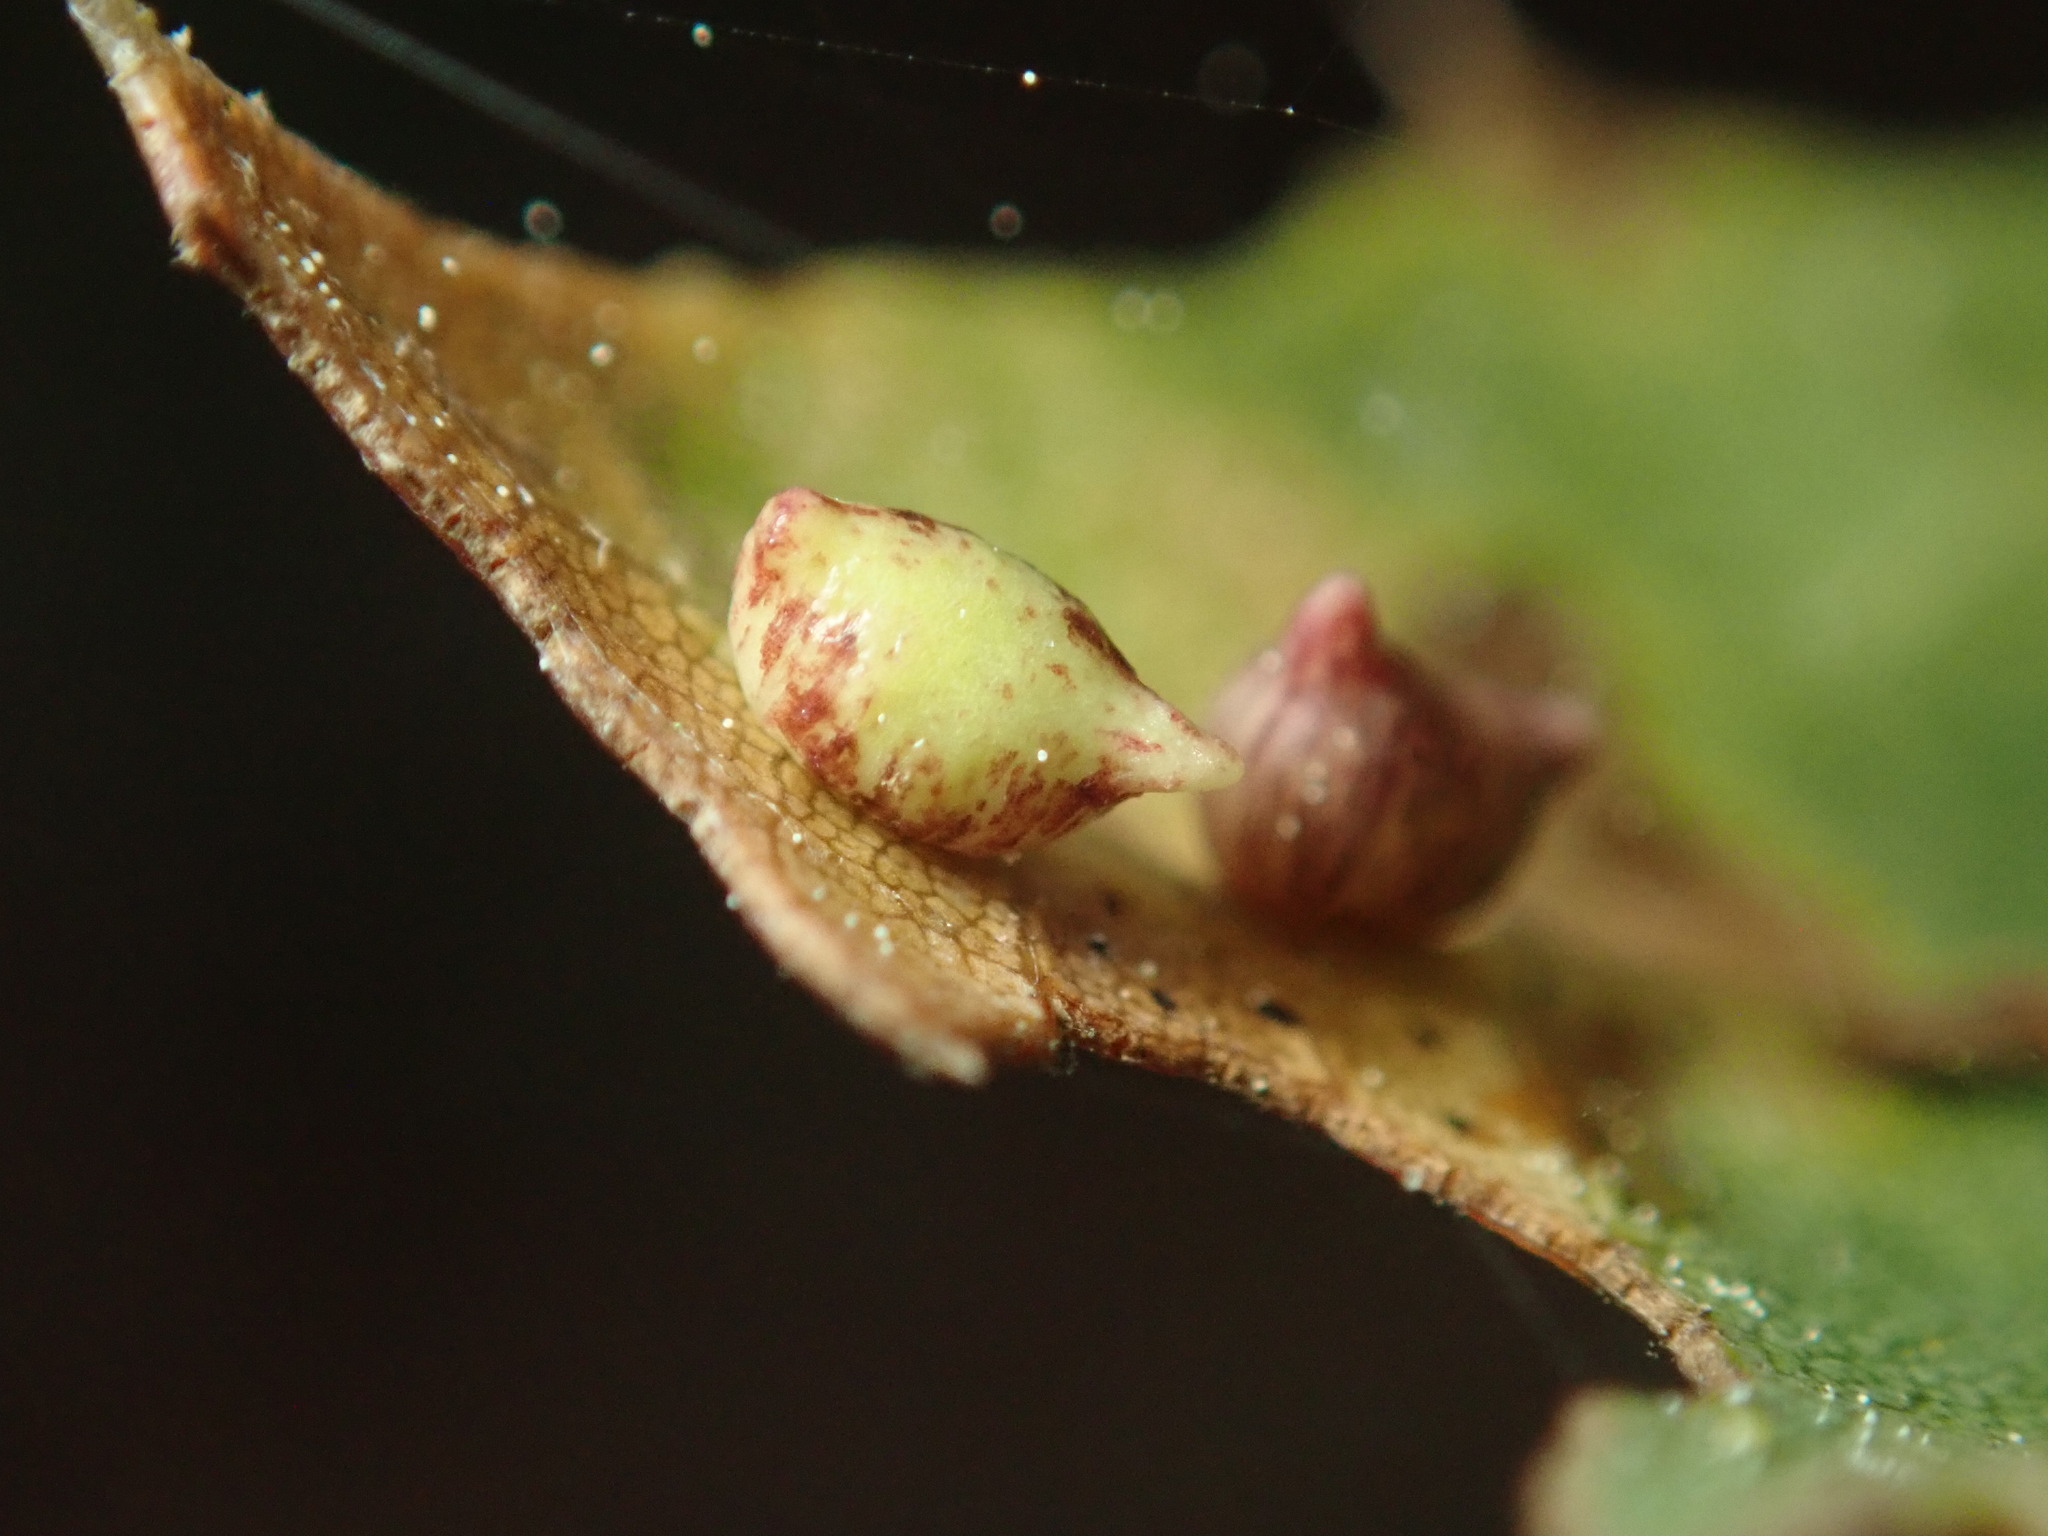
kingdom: Animalia
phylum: Arthropoda
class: Insecta
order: Hymenoptera
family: Cynipidae
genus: Dryocosmus
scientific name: Dryocosmus
